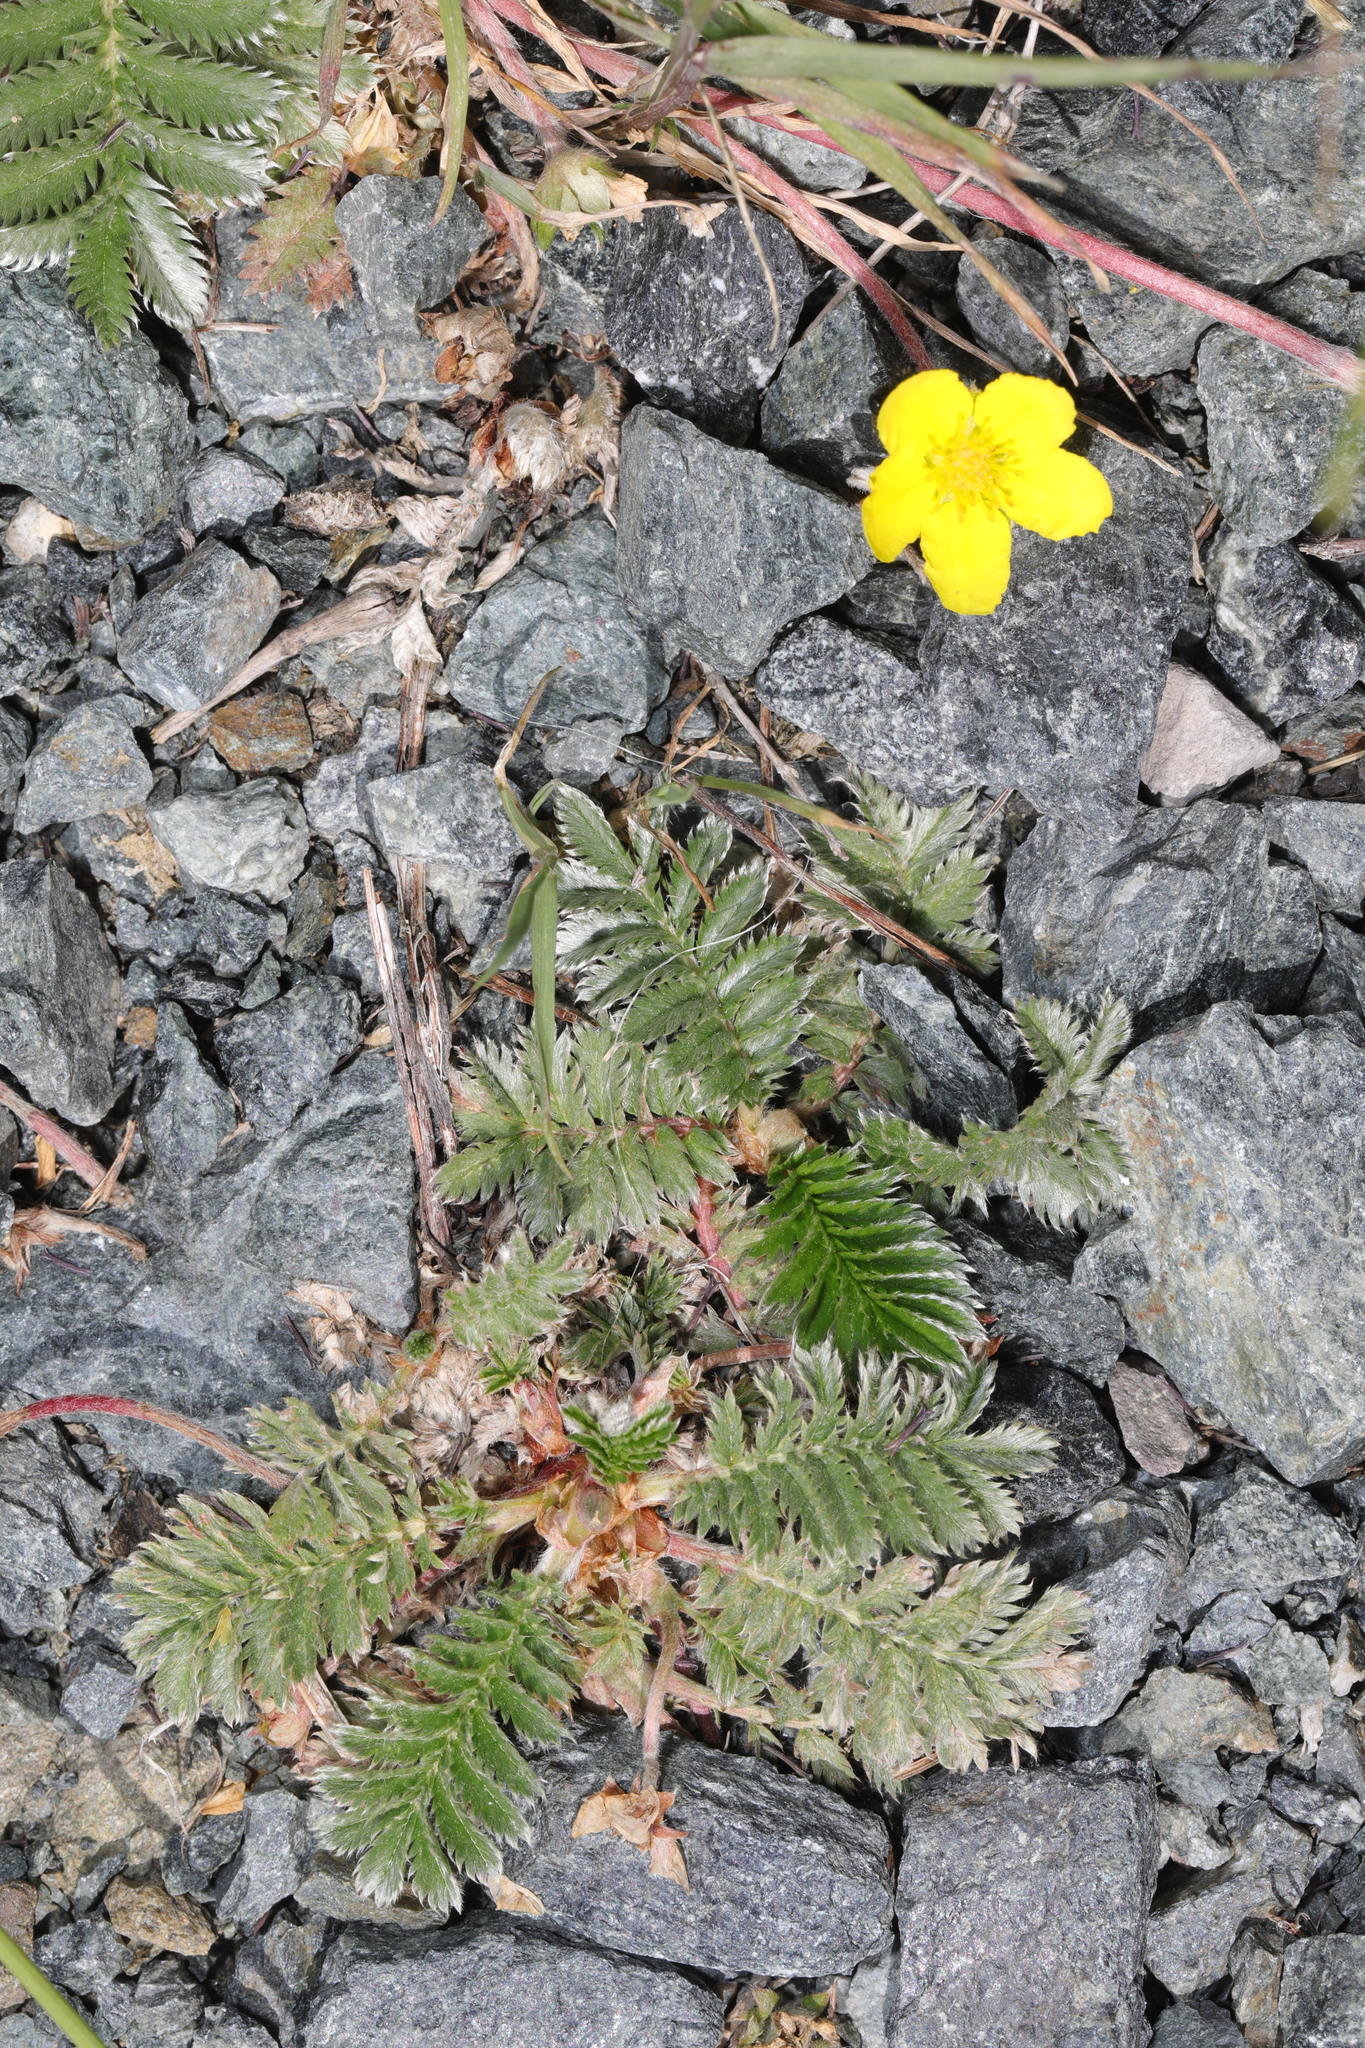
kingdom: Plantae
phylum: Tracheophyta
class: Magnoliopsida
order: Rosales
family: Rosaceae
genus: Argentina
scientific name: Argentina anserina
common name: Common silverweed
